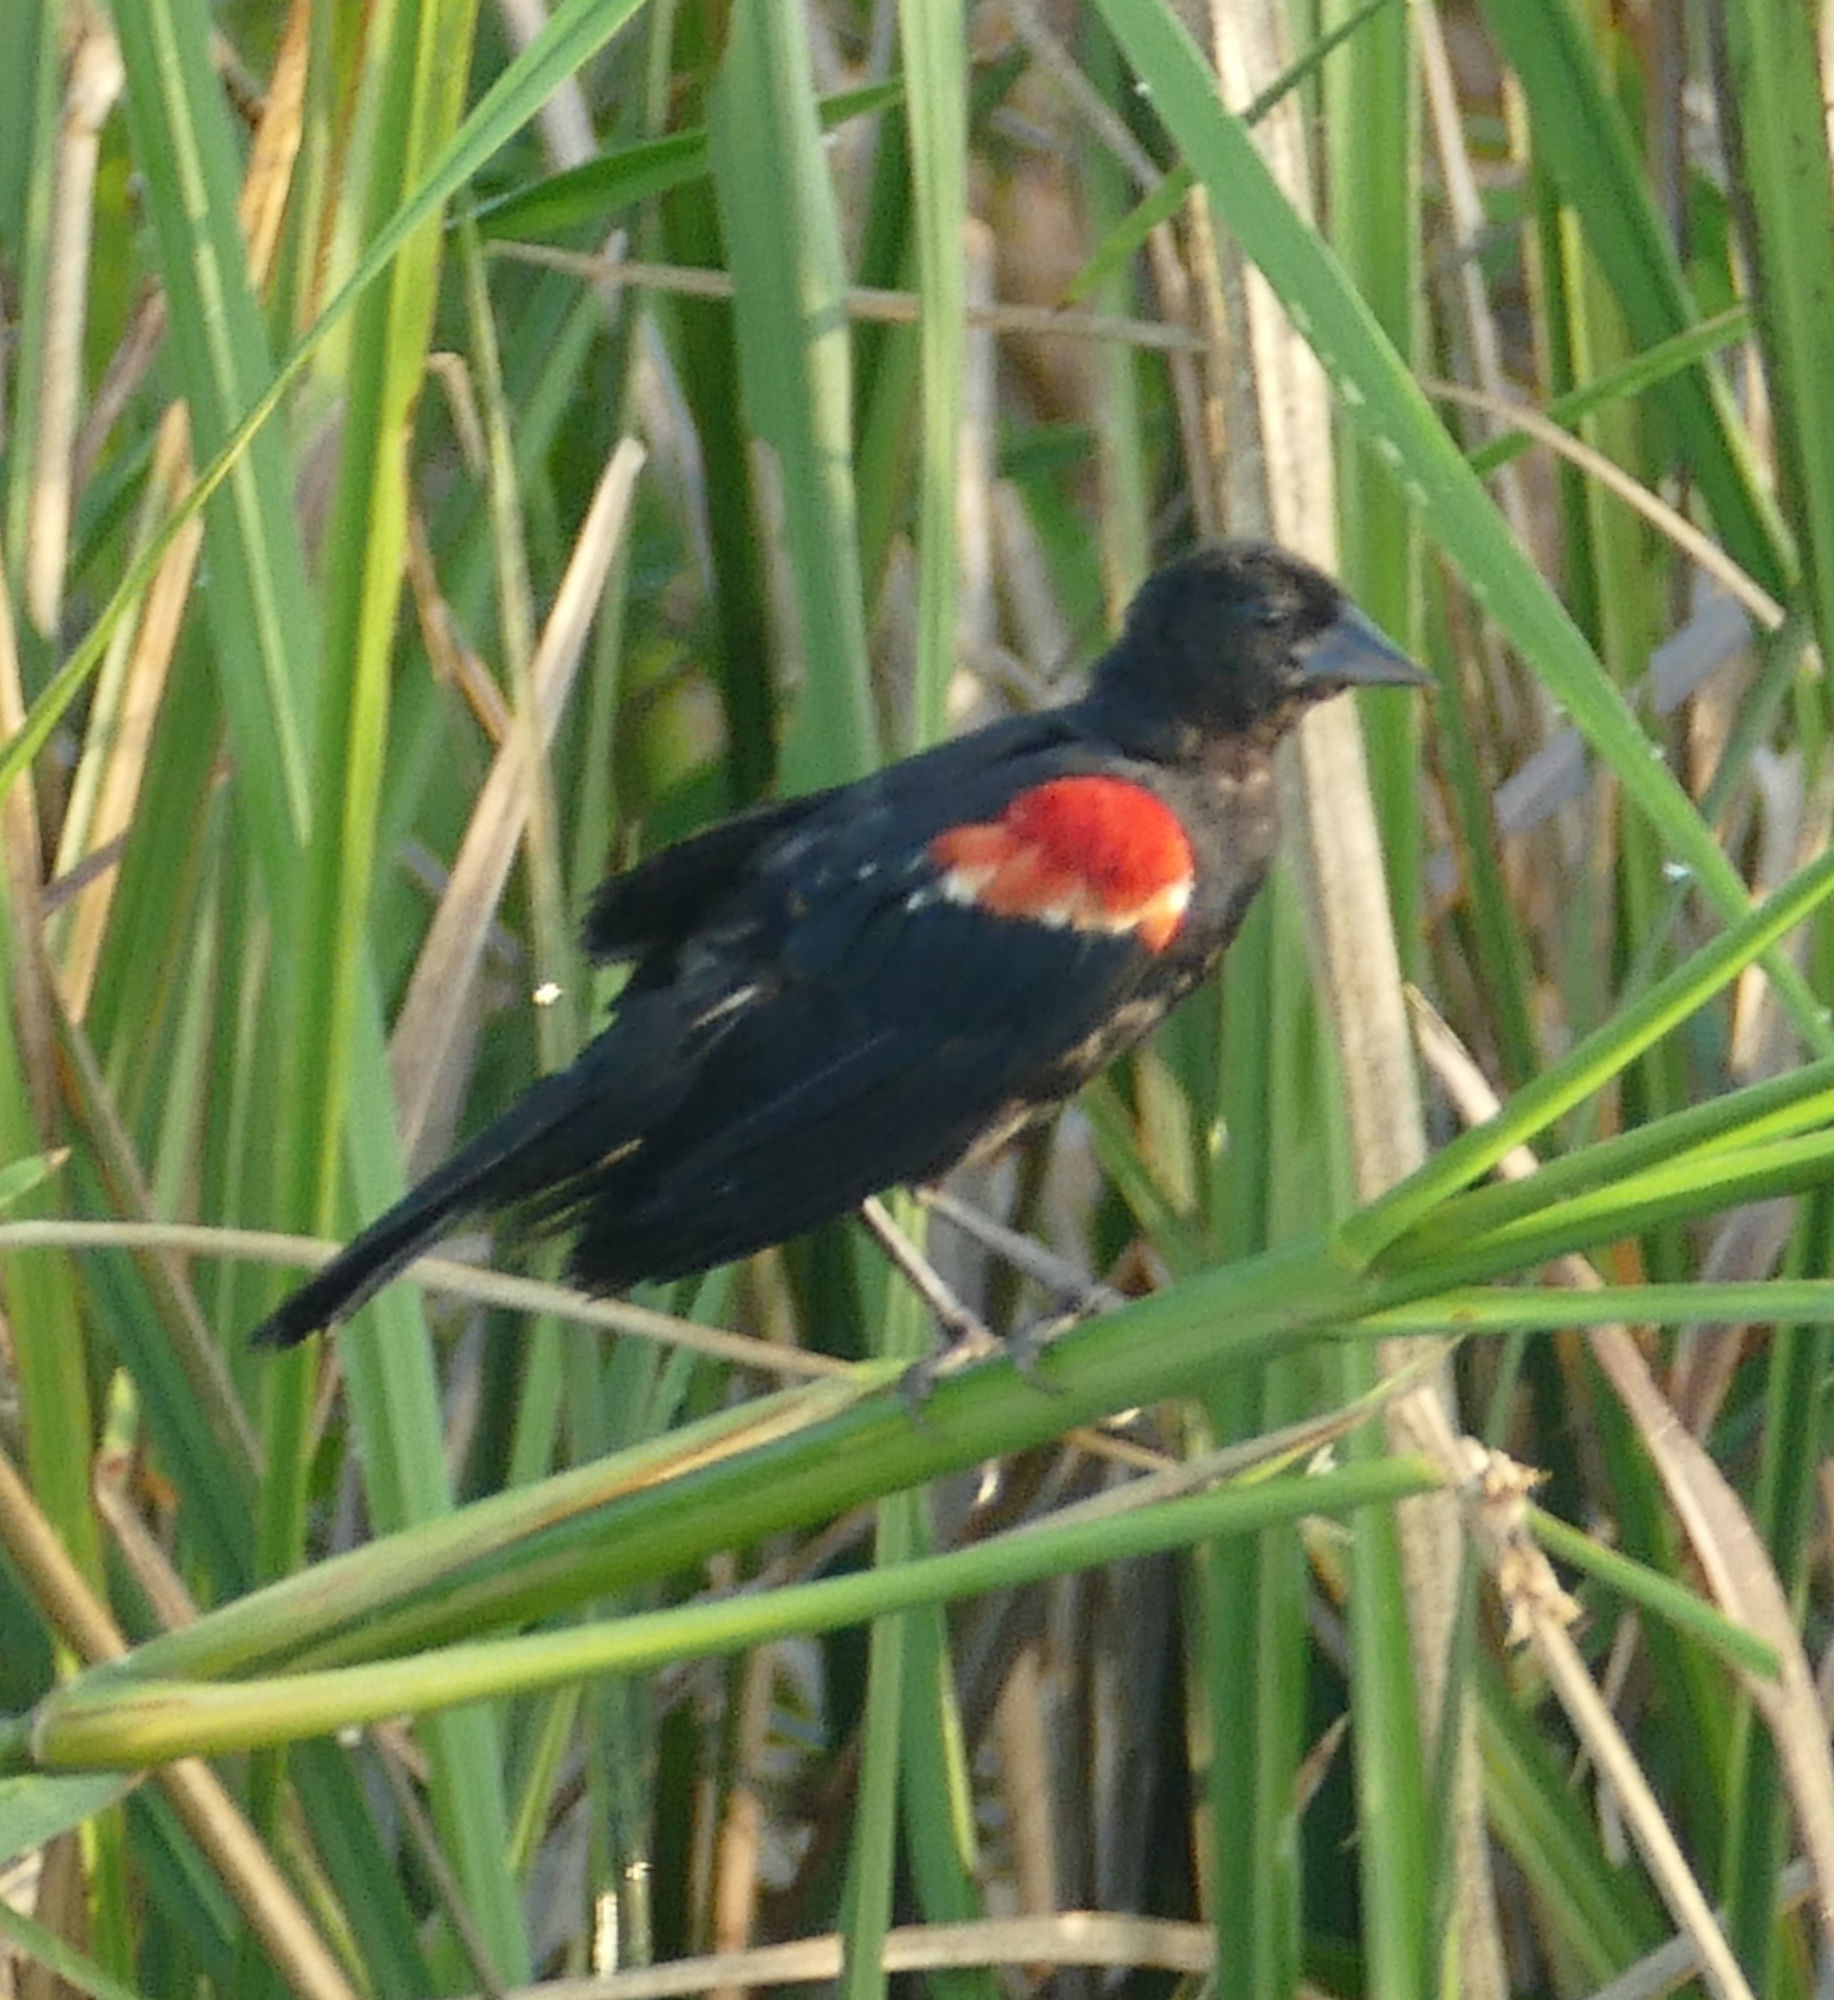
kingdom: Animalia
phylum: Chordata
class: Aves
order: Passeriformes
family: Icteridae
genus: Agelaius
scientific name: Agelaius phoeniceus
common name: Red-winged blackbird
